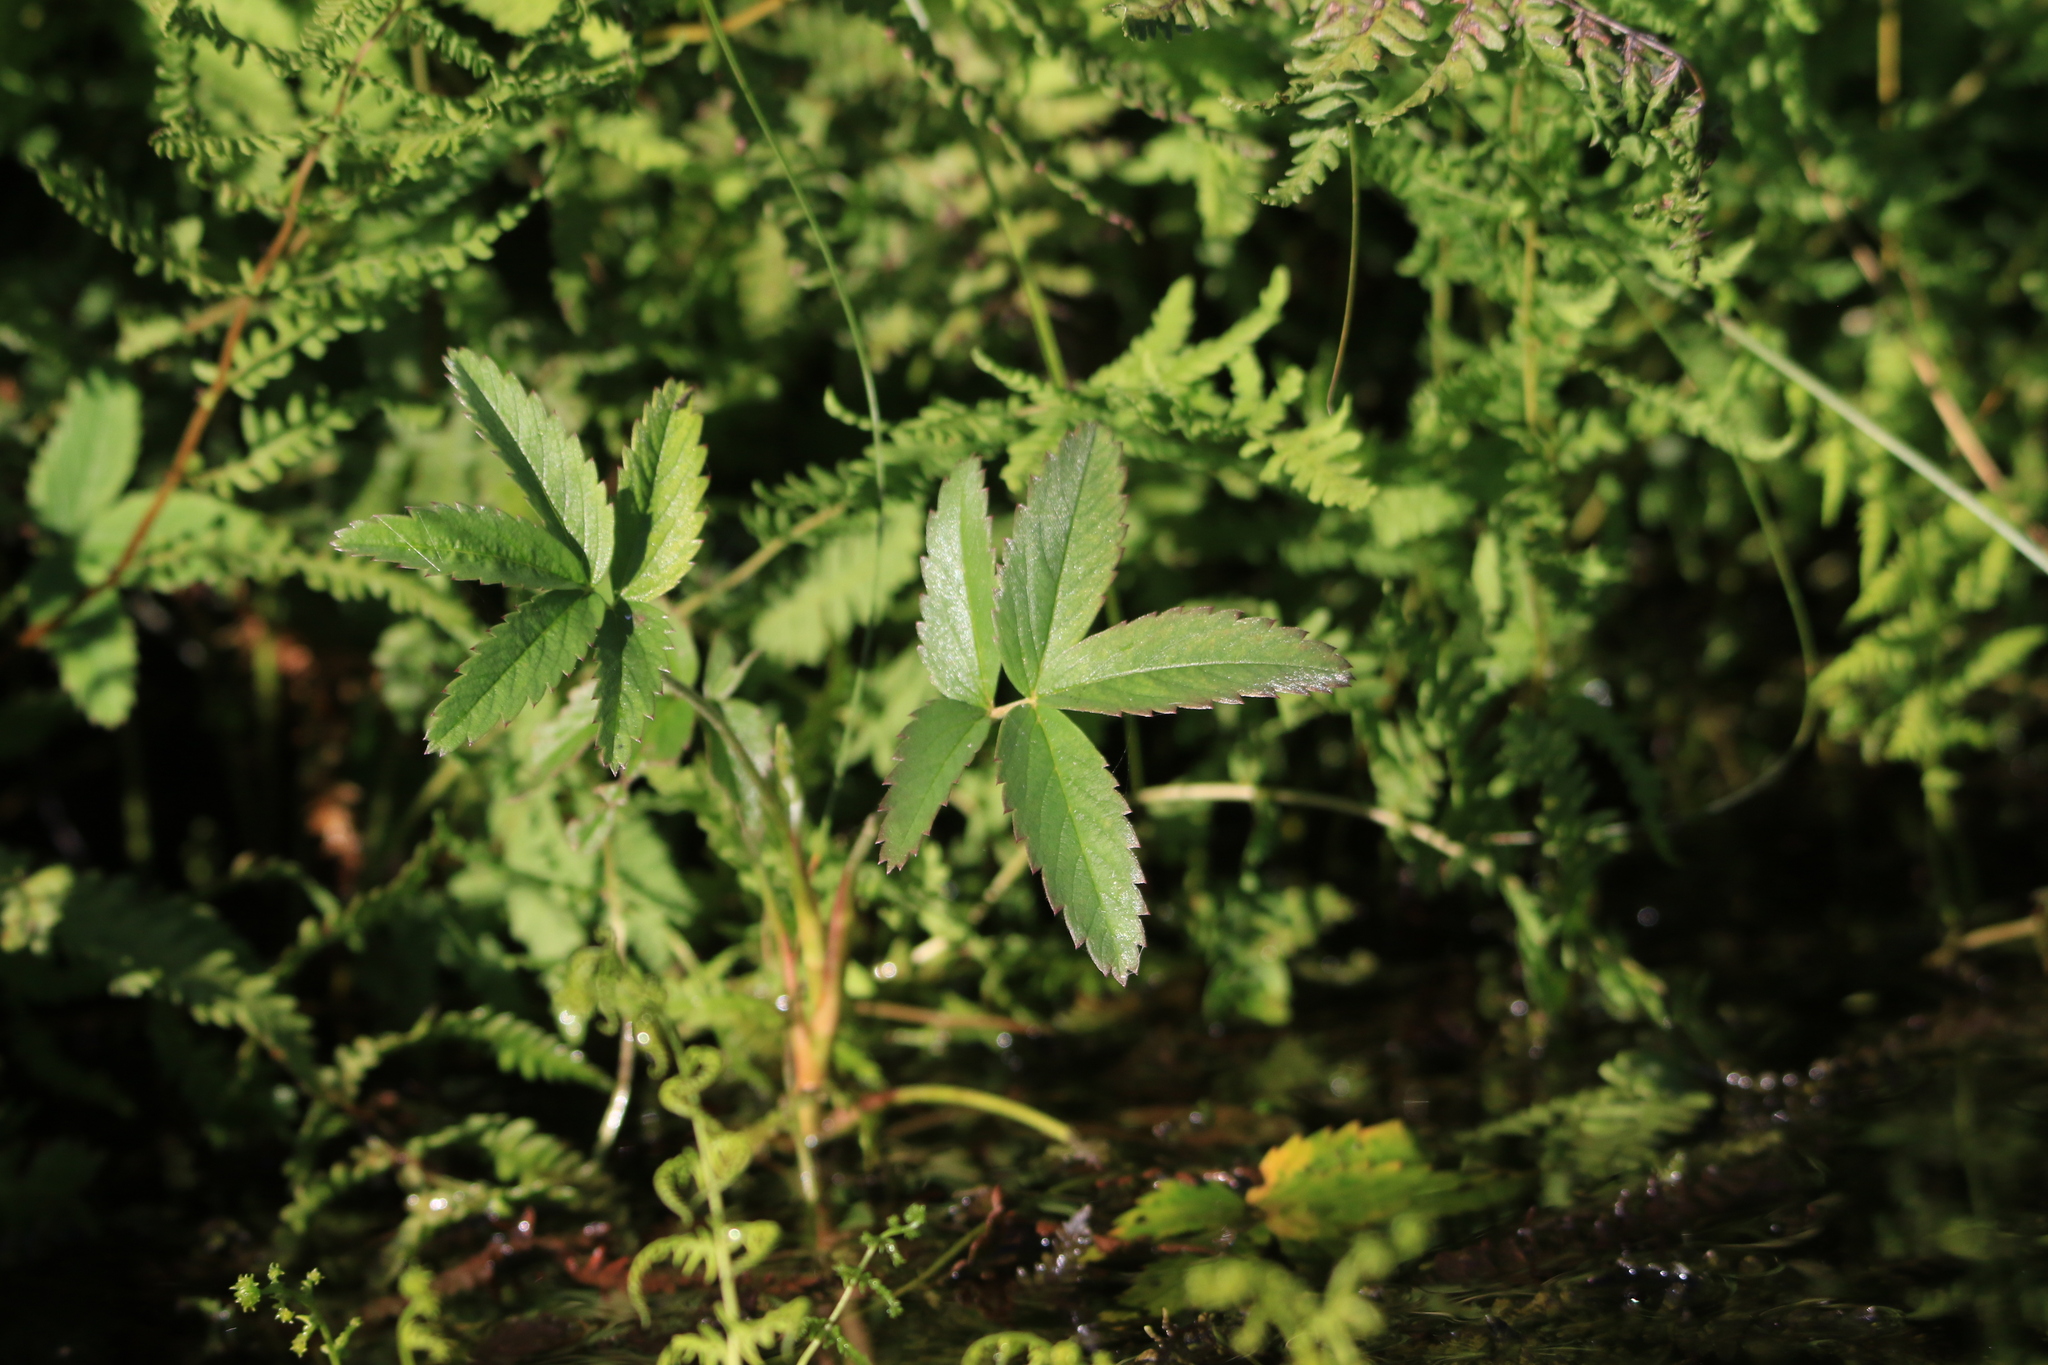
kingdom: Plantae
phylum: Tracheophyta
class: Magnoliopsida
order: Rosales
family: Rosaceae
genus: Comarum
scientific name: Comarum palustre
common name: Marsh cinquefoil
